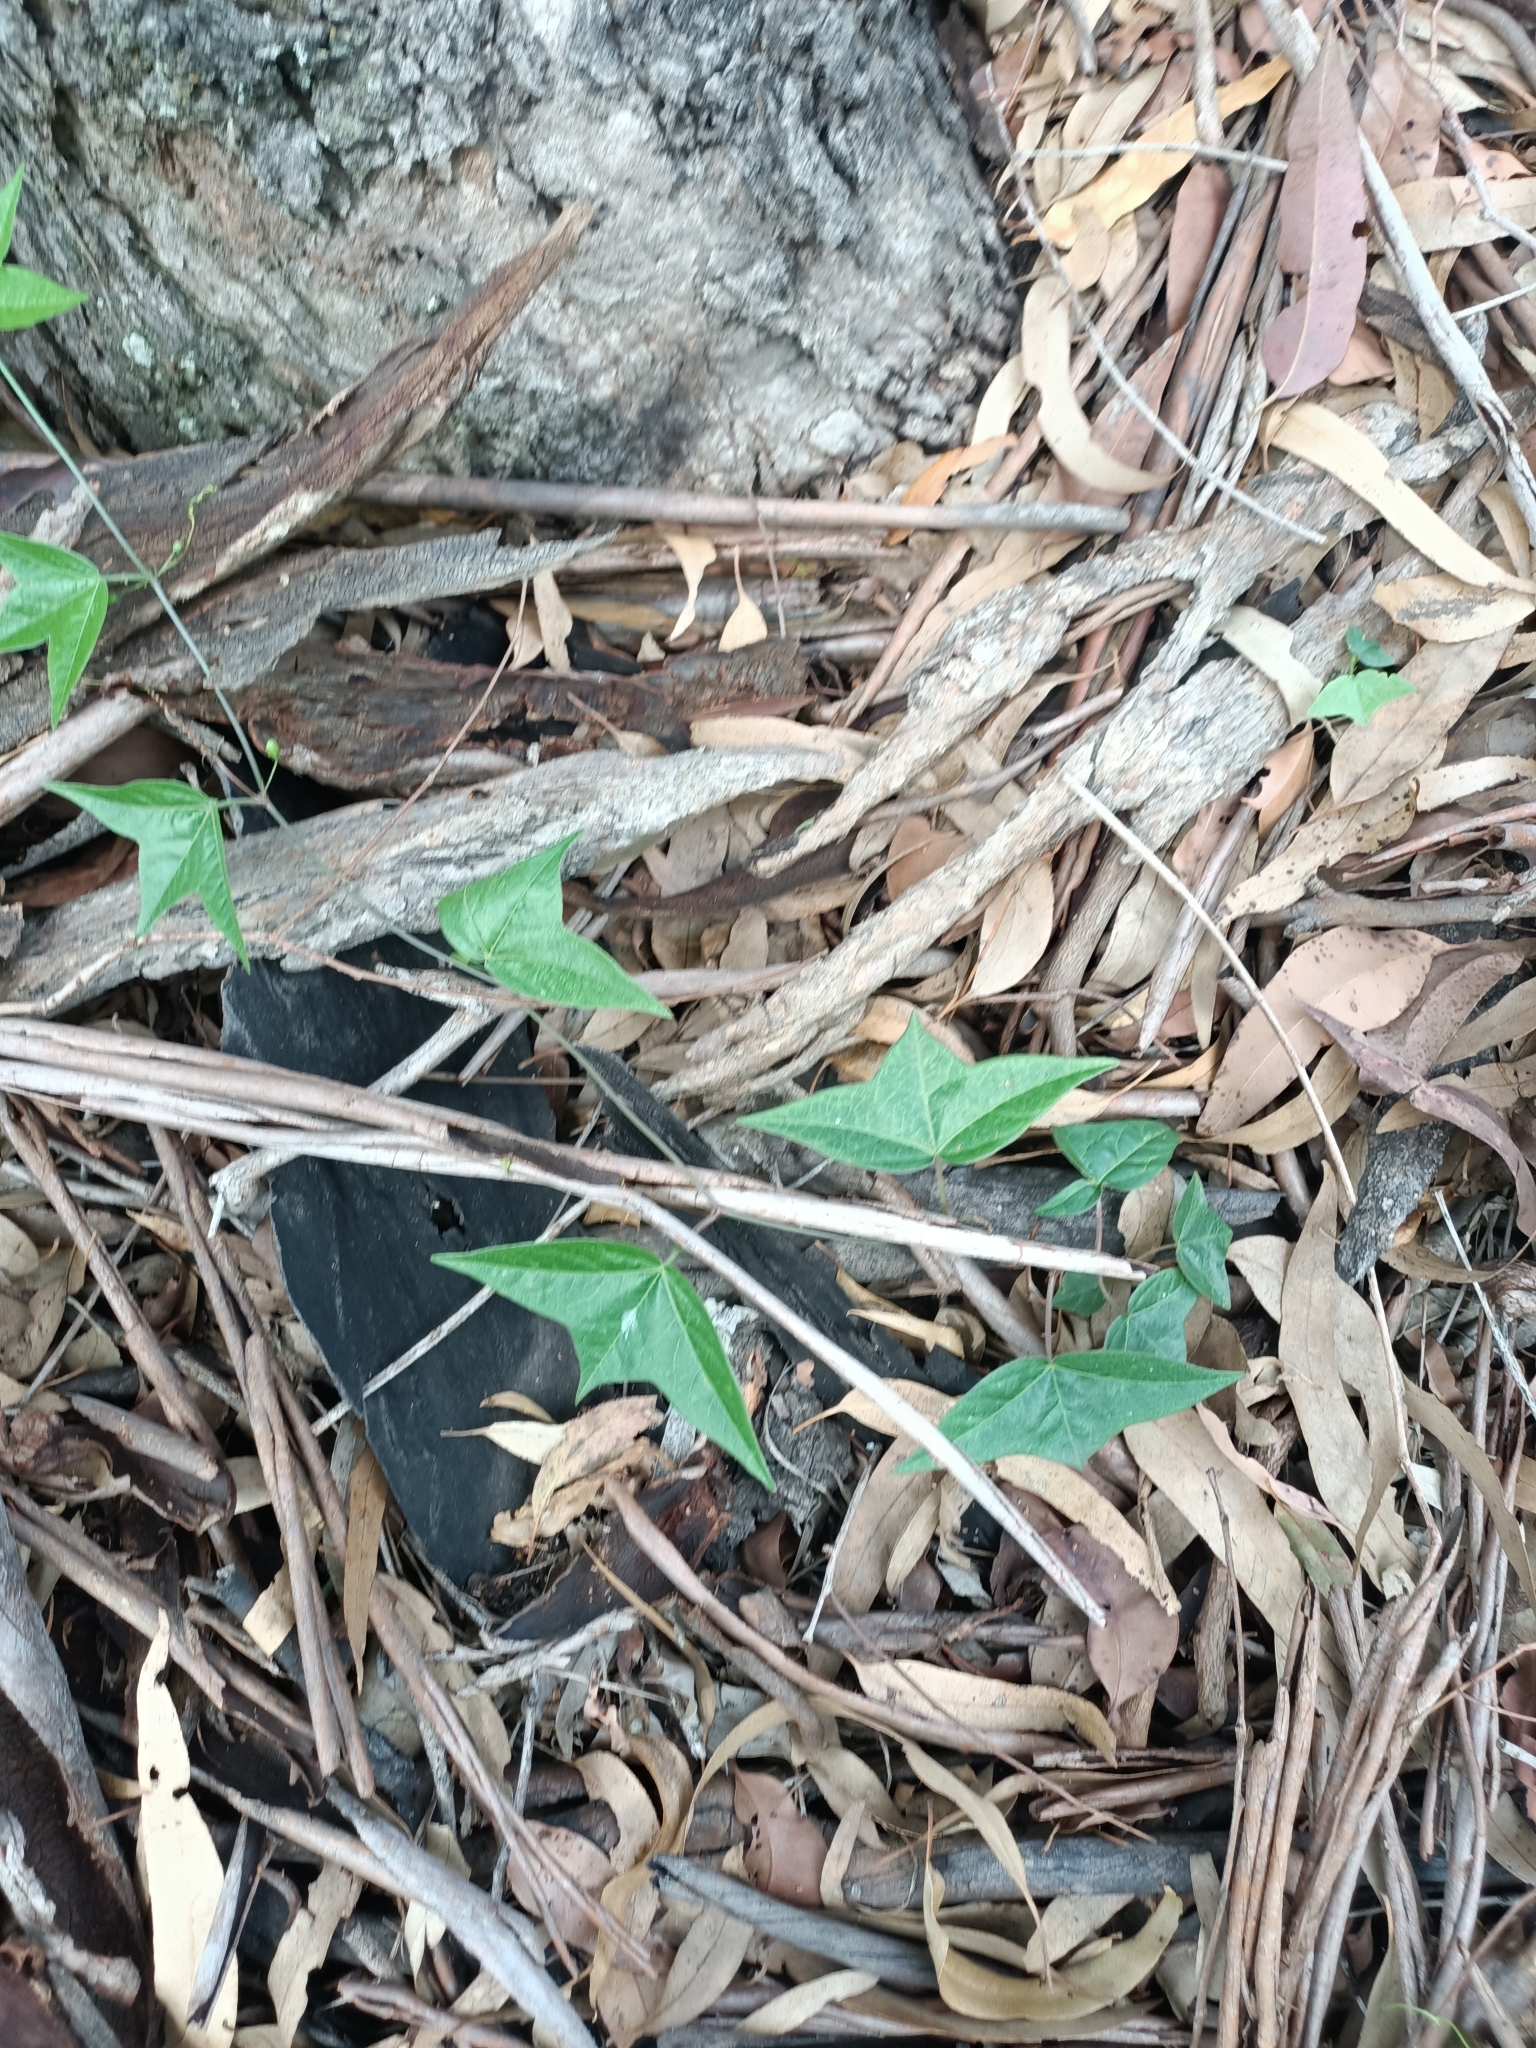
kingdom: Plantae
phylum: Tracheophyta
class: Magnoliopsida
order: Malpighiales
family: Passifloraceae
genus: Passiflora
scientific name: Passiflora suberosa
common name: Wild passionfruit
